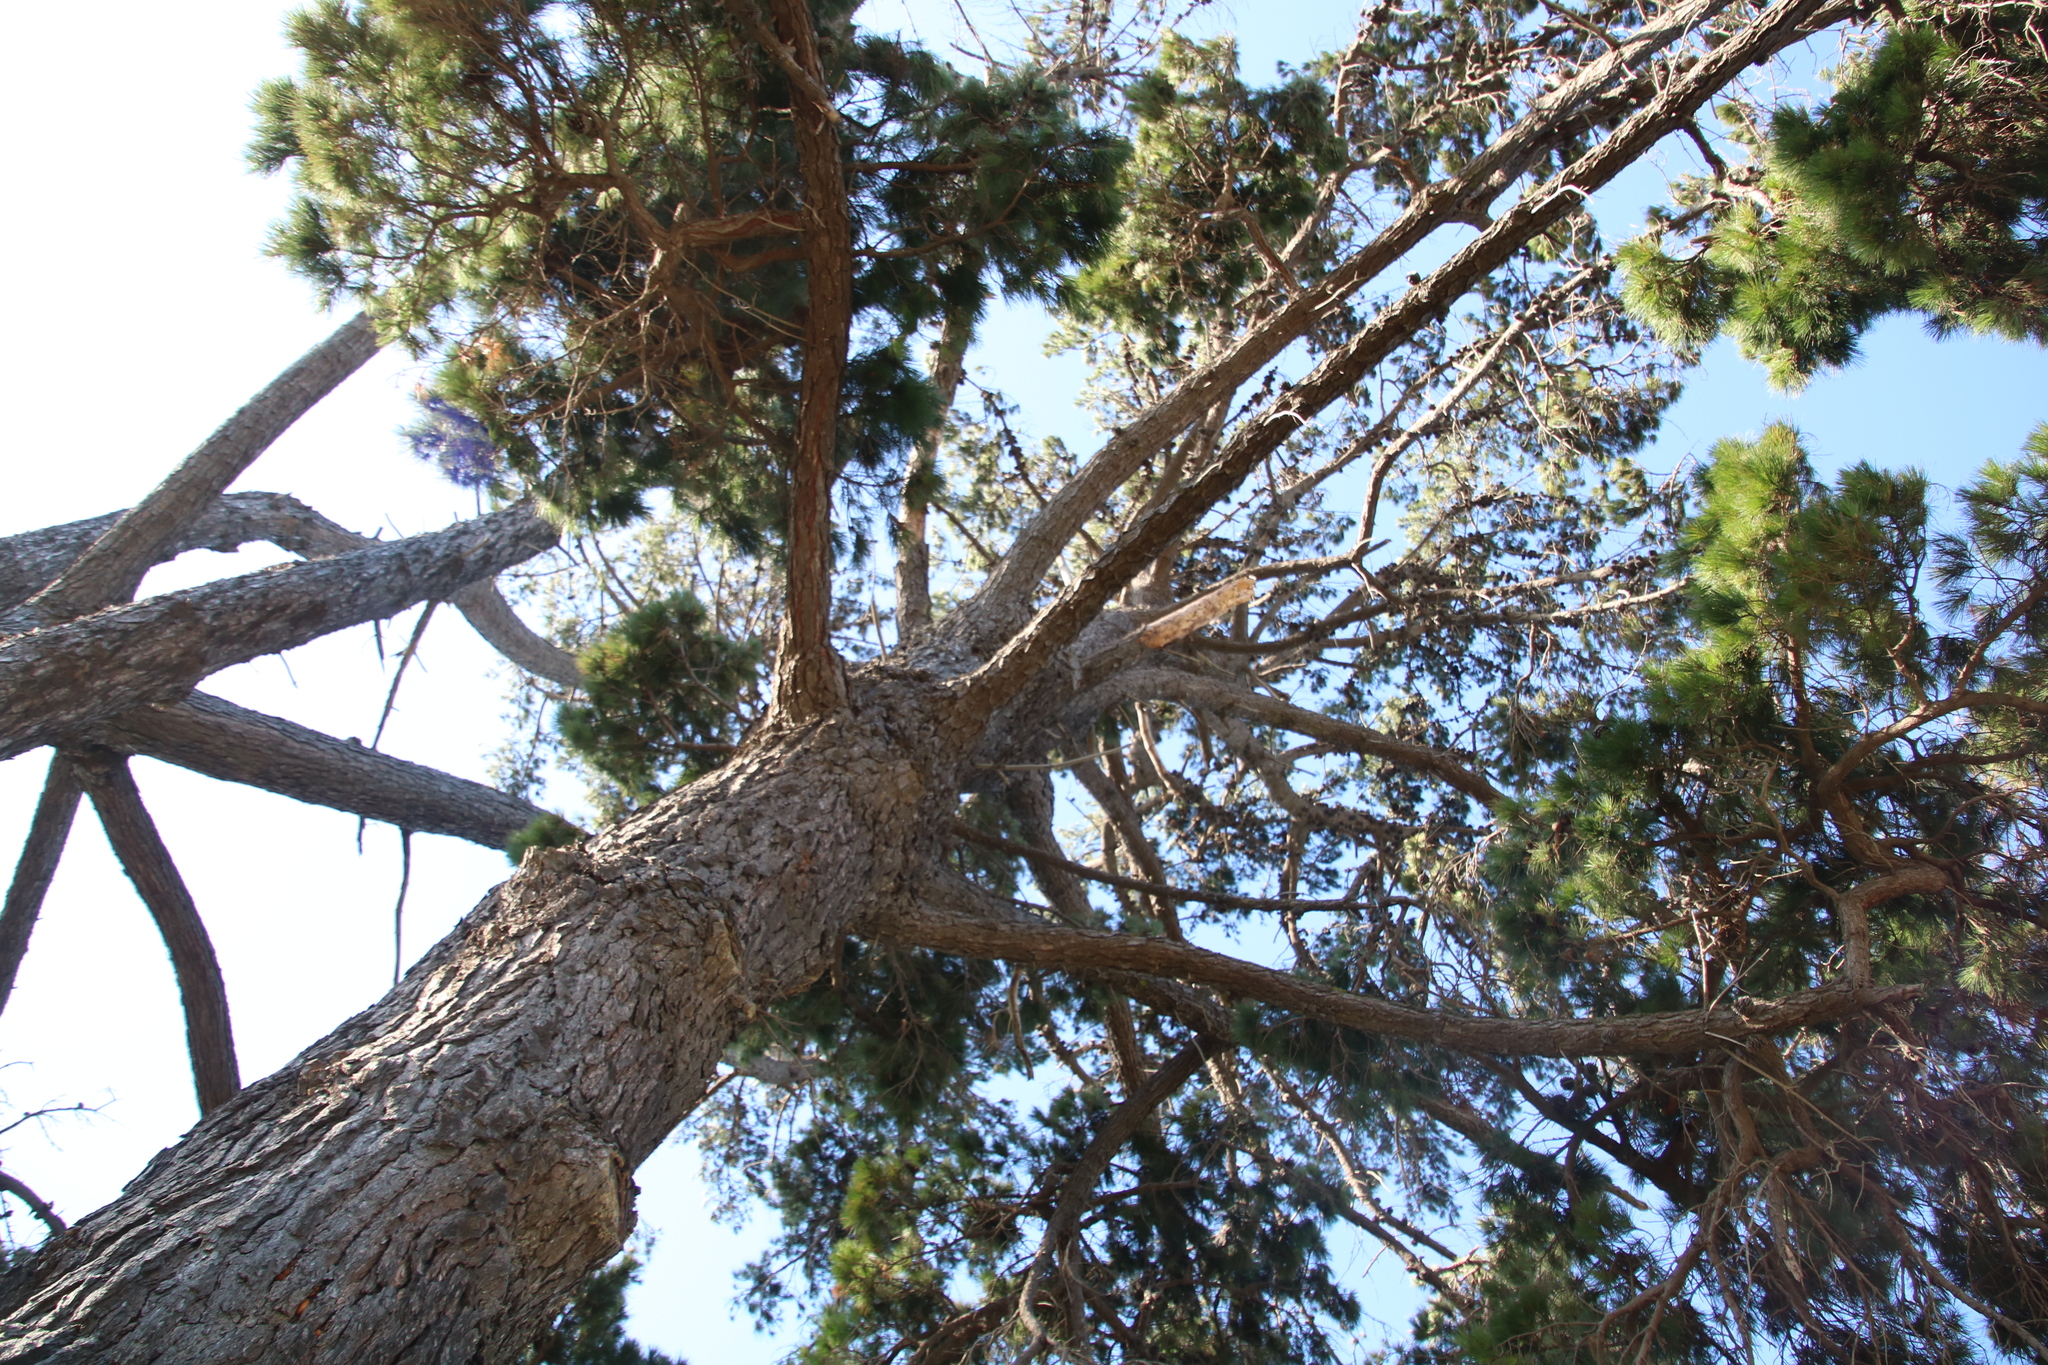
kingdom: Plantae
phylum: Tracheophyta
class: Pinopsida
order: Pinales
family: Pinaceae
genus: Pinus
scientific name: Pinus radiata
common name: Monterey pine
